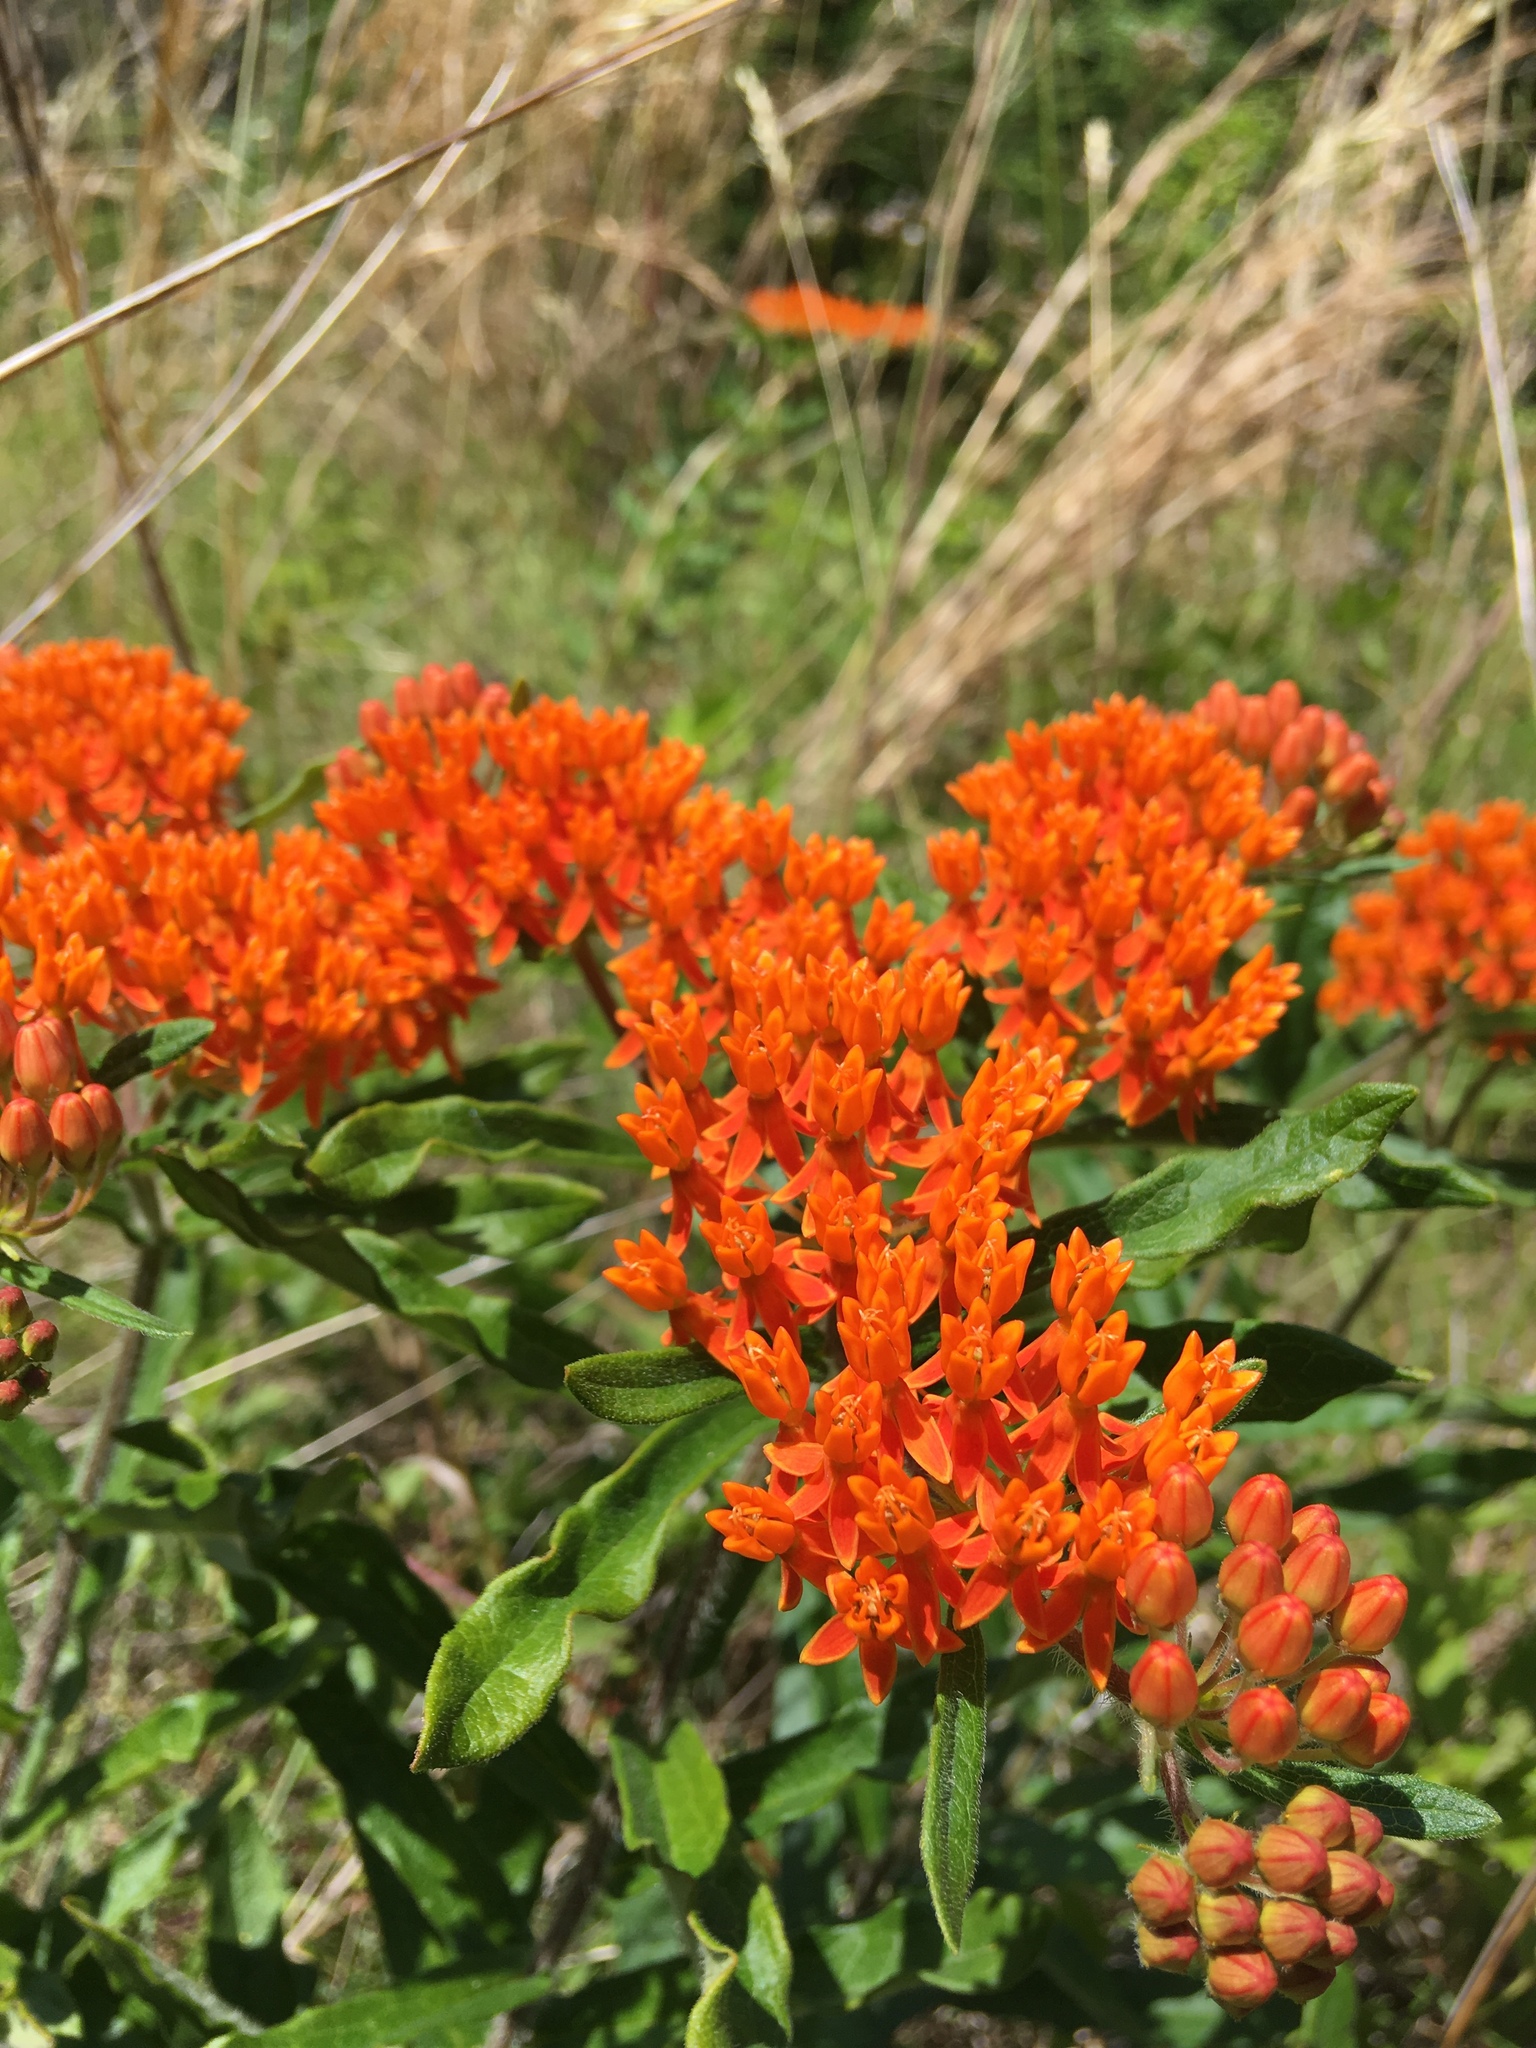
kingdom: Plantae
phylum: Tracheophyta
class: Magnoliopsida
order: Gentianales
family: Apocynaceae
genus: Asclepias
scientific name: Asclepias tuberosa
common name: Butterfly milkweed
